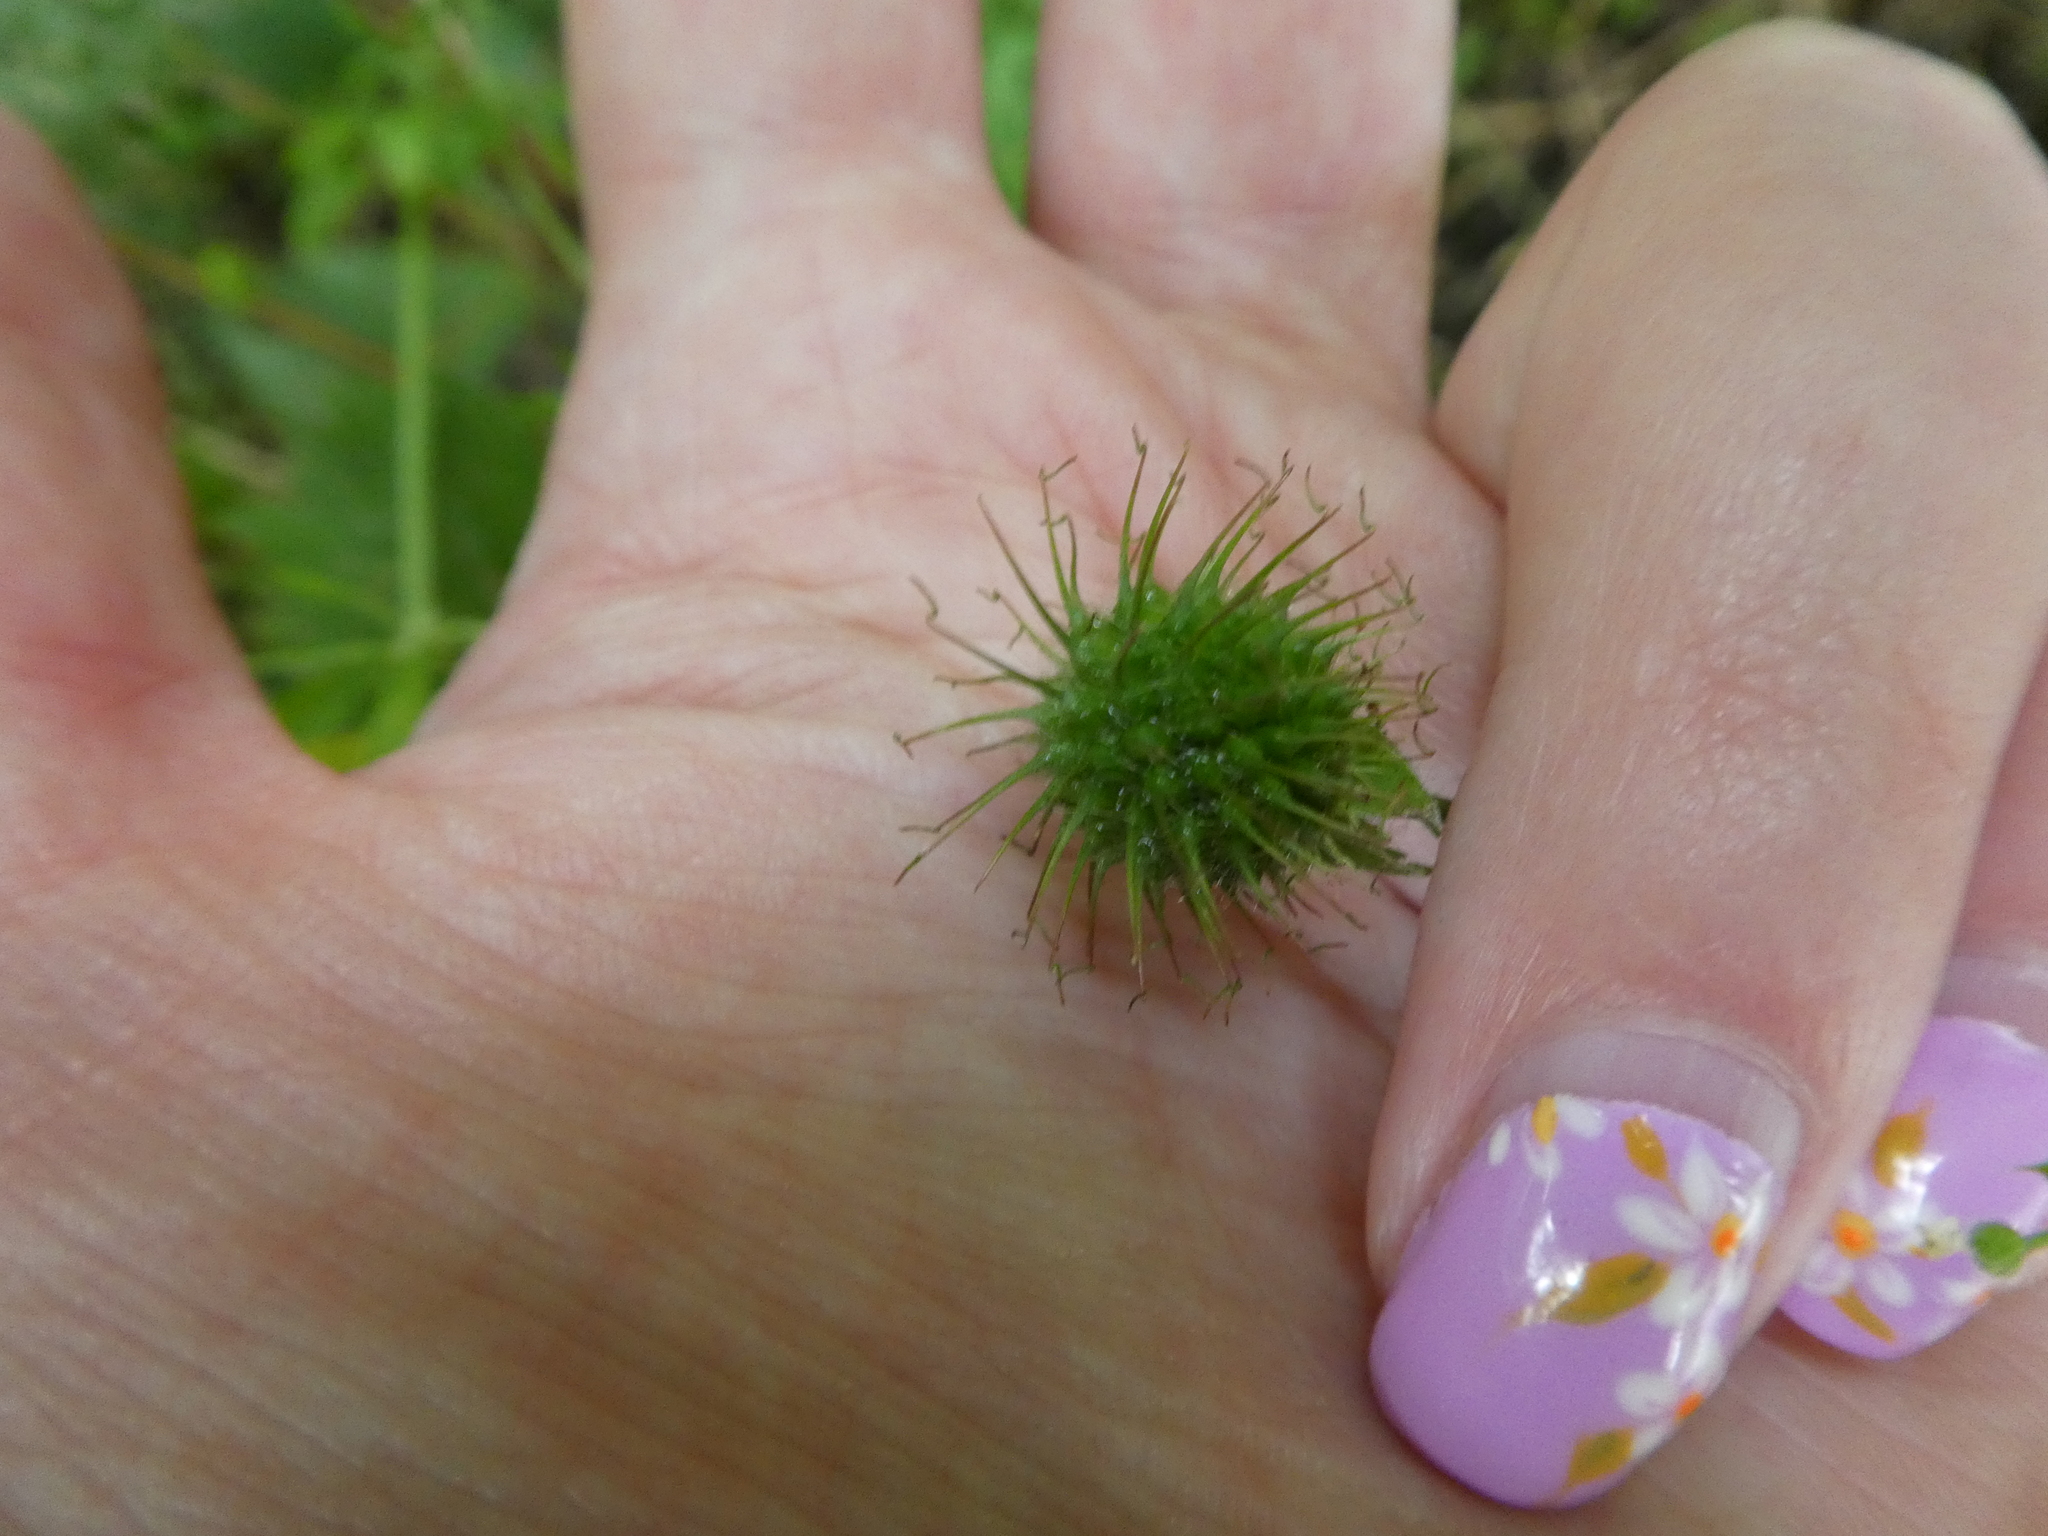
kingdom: Plantae
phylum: Tracheophyta
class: Magnoliopsida
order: Rosales
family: Rosaceae
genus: Geum
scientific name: Geum urbanum
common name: Wood avens
